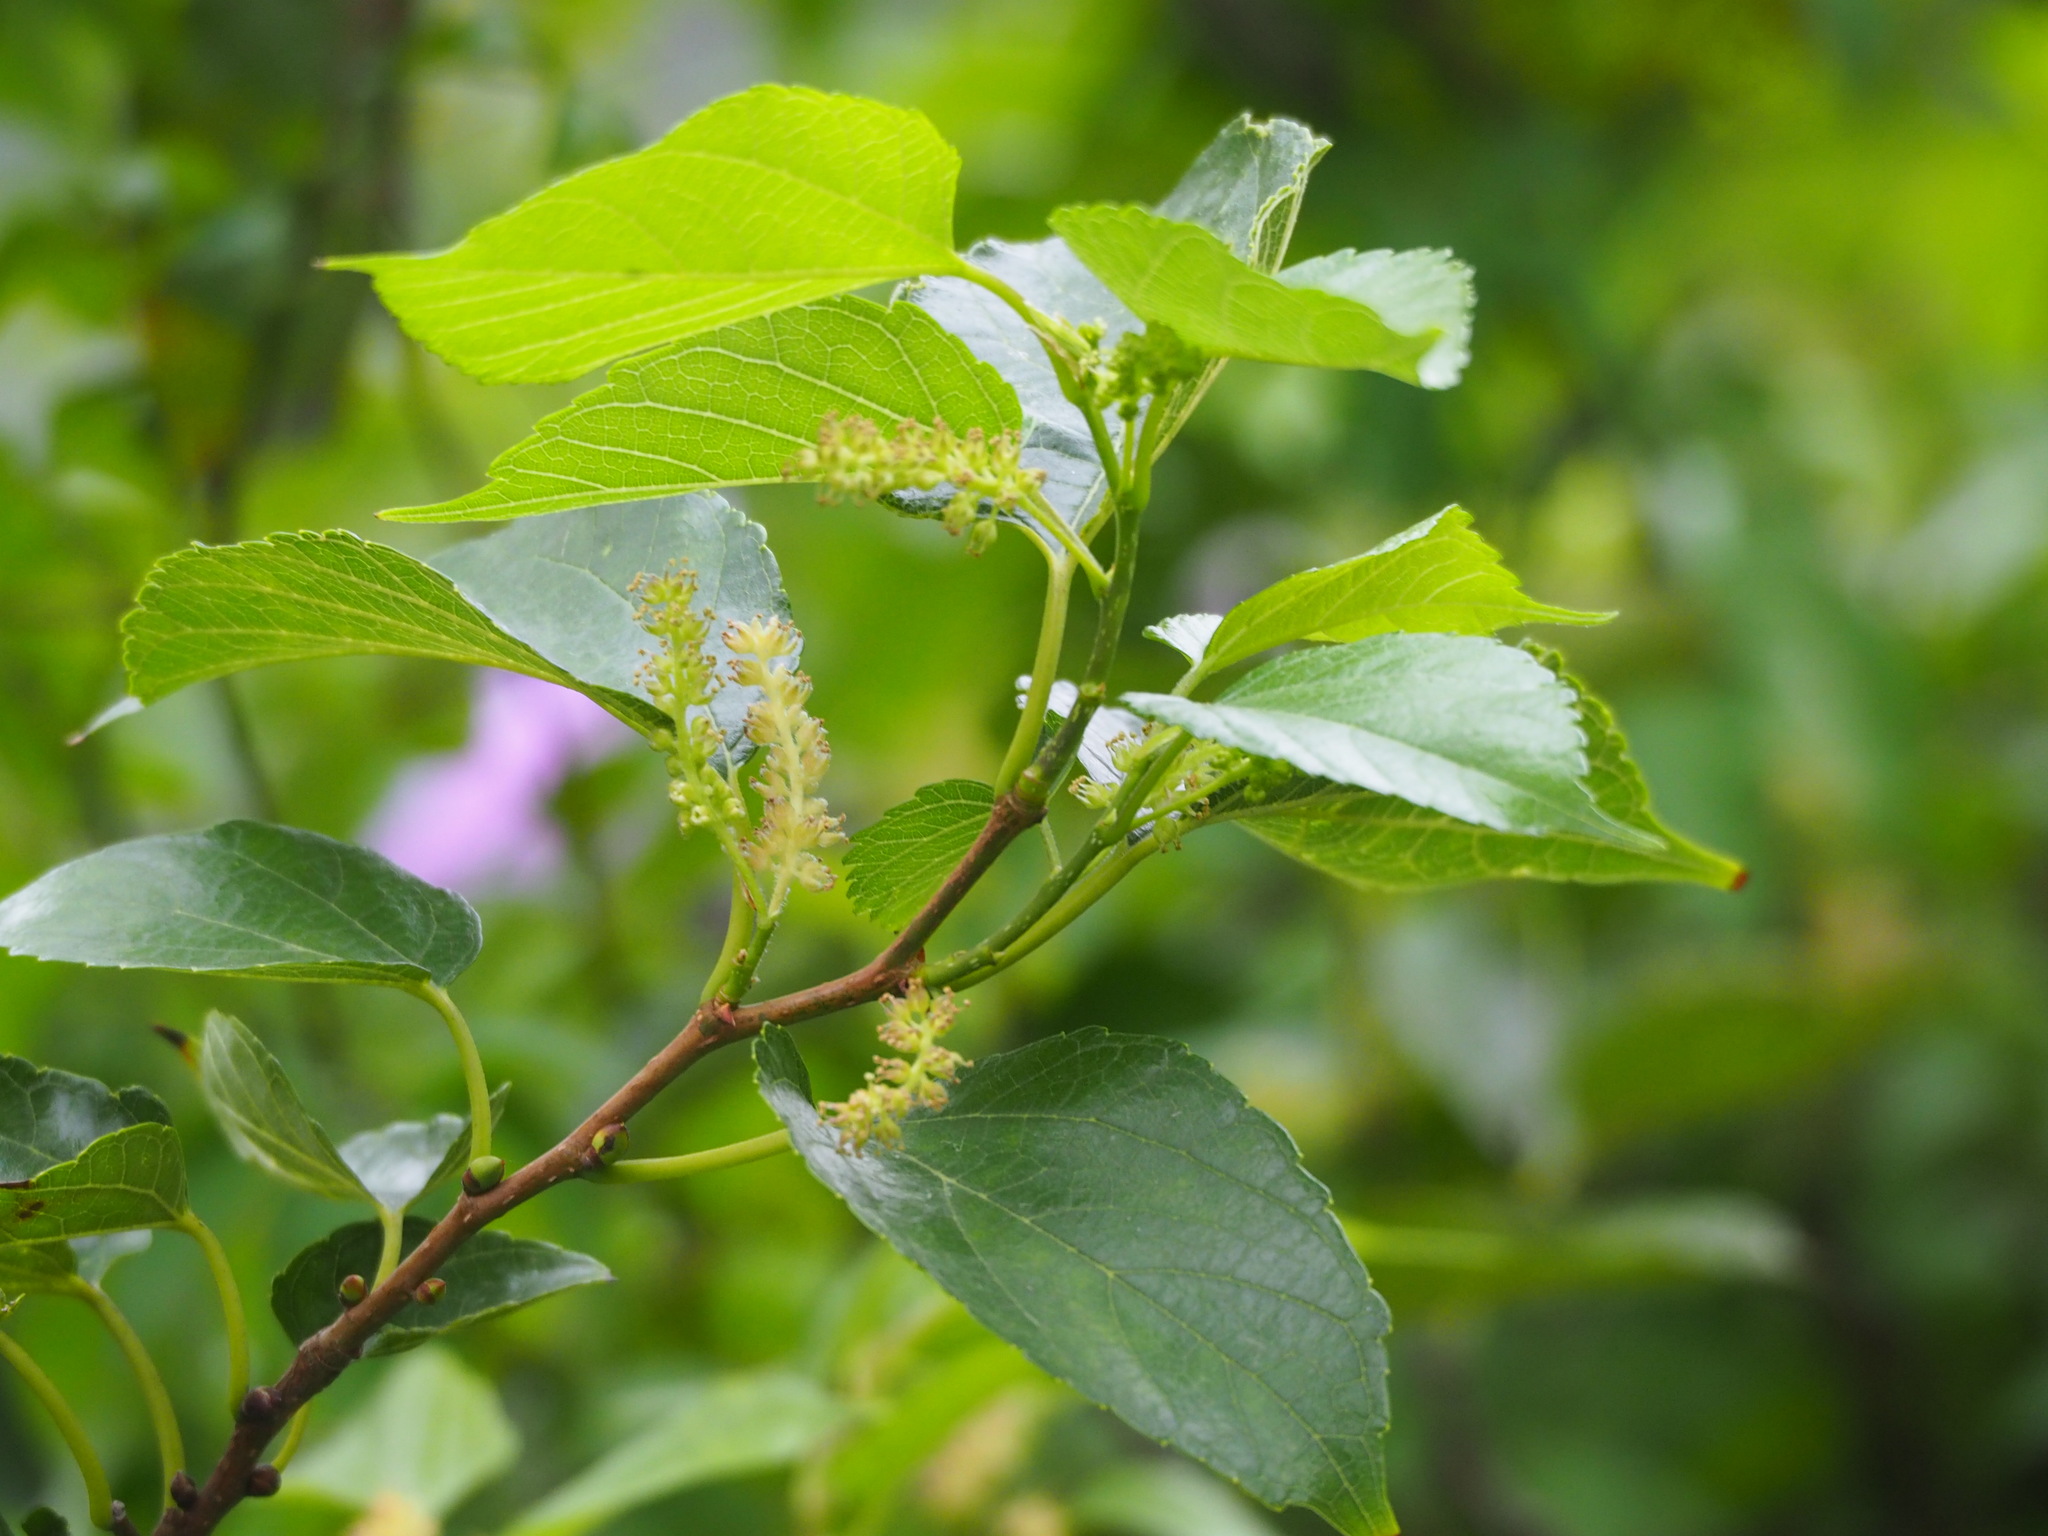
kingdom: Plantae
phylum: Tracheophyta
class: Magnoliopsida
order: Rosales
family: Moraceae
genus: Morus
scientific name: Morus indica
